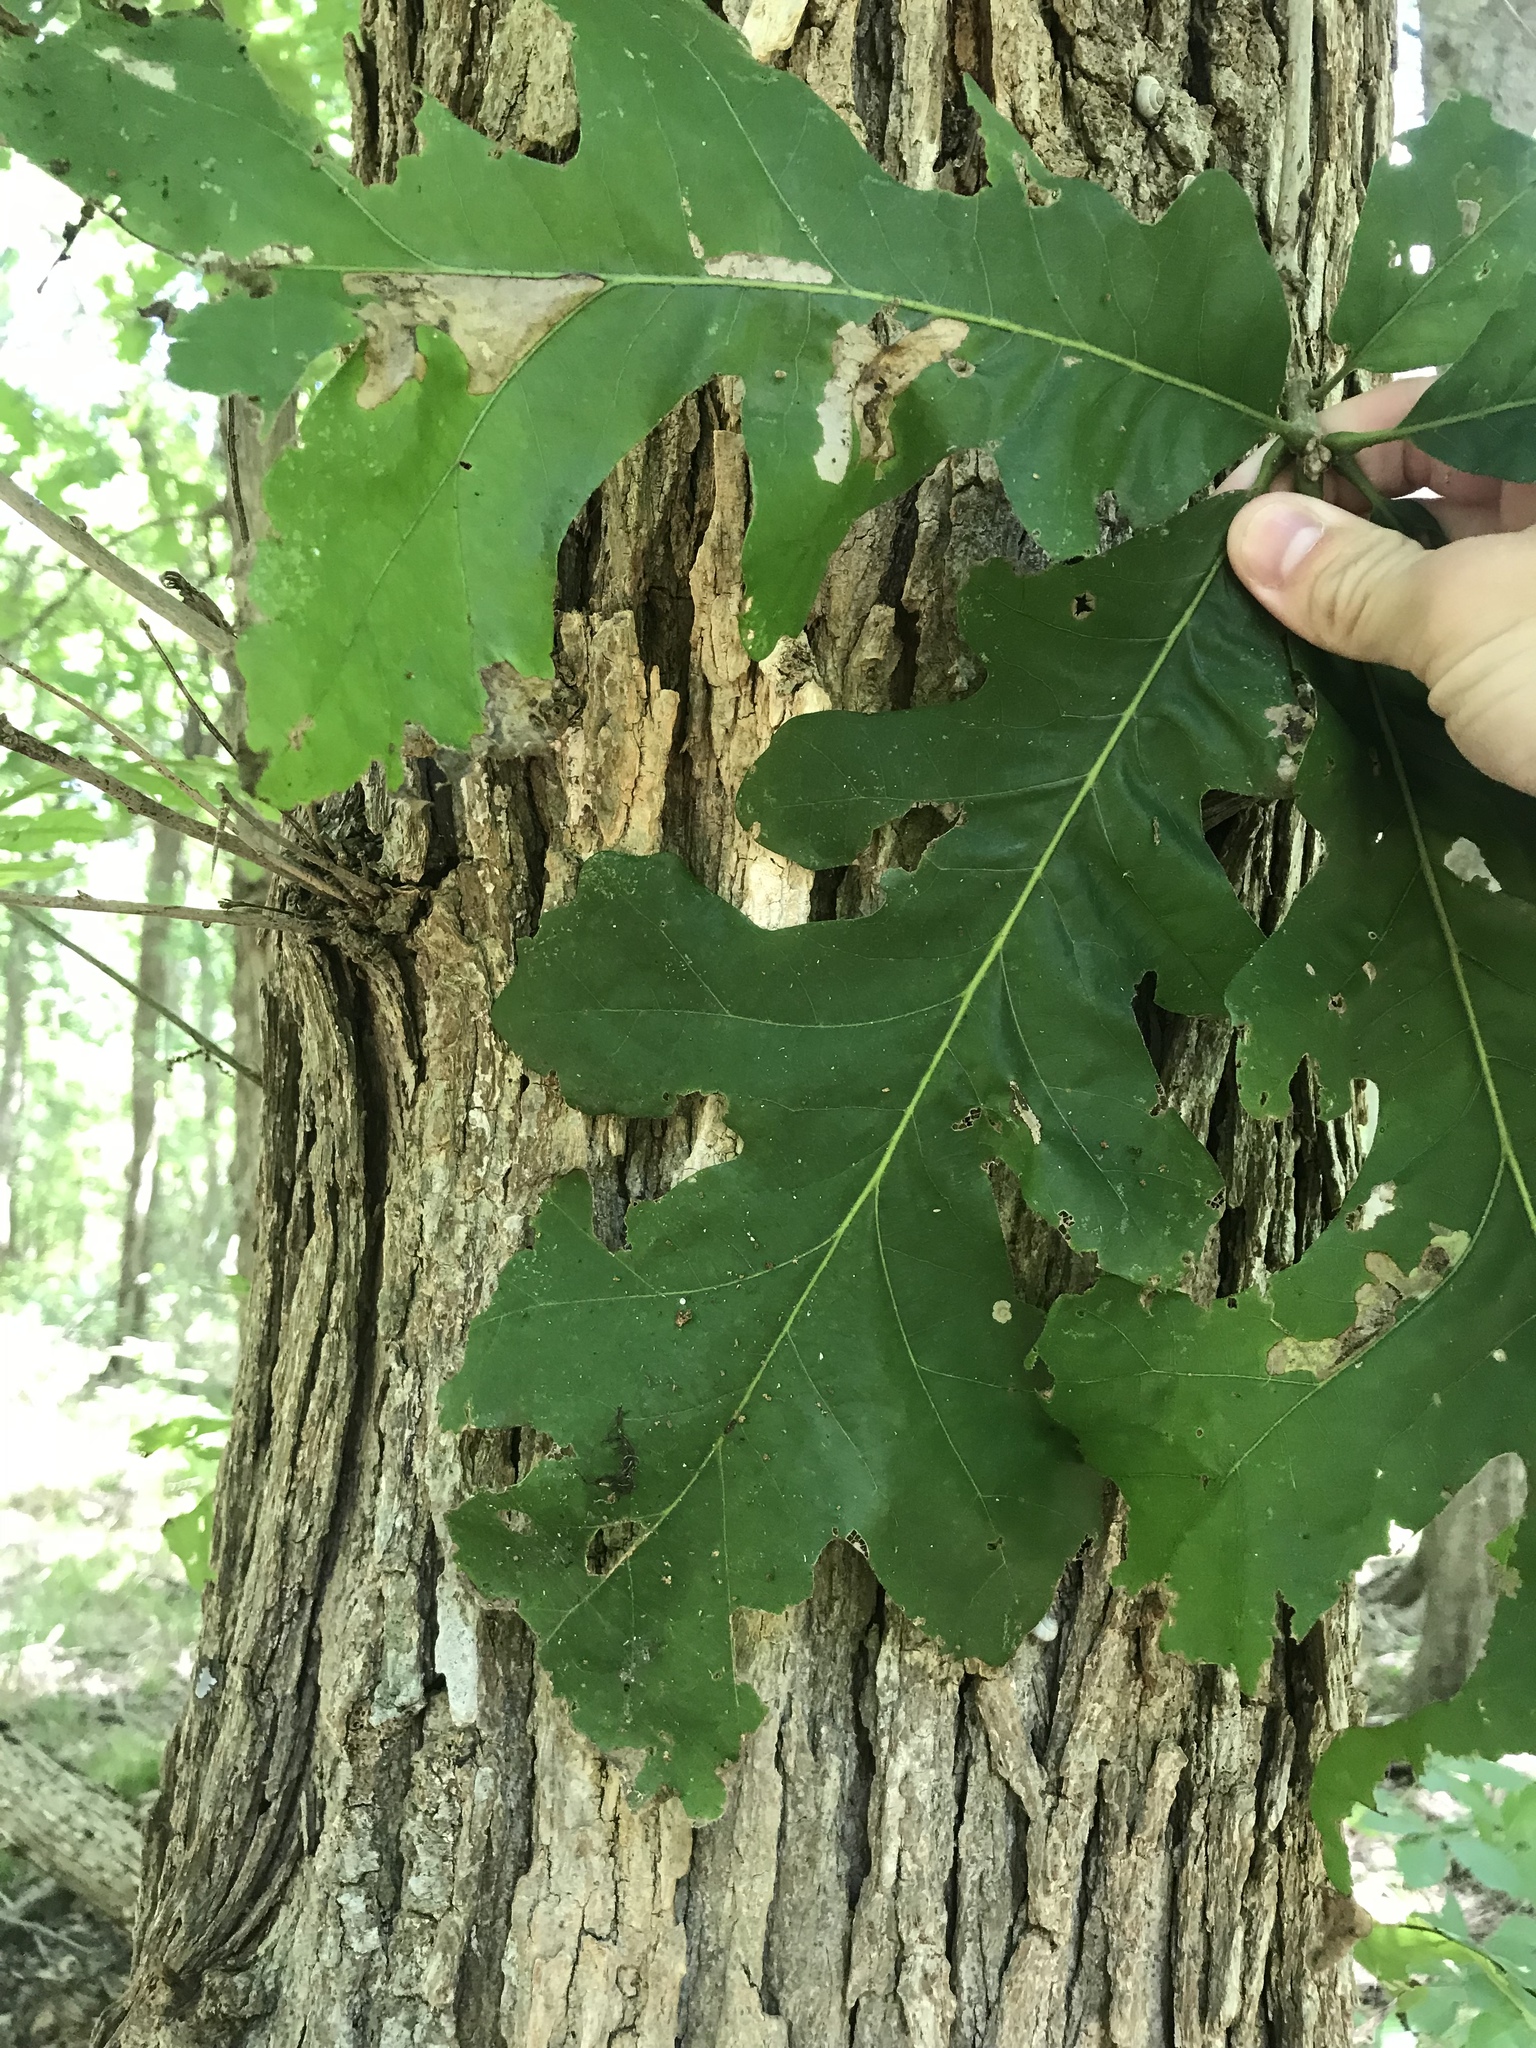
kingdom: Plantae
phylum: Tracheophyta
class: Magnoliopsida
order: Fagales
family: Fagaceae
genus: Quercus
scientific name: Quercus macrocarpa
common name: Bur oak
